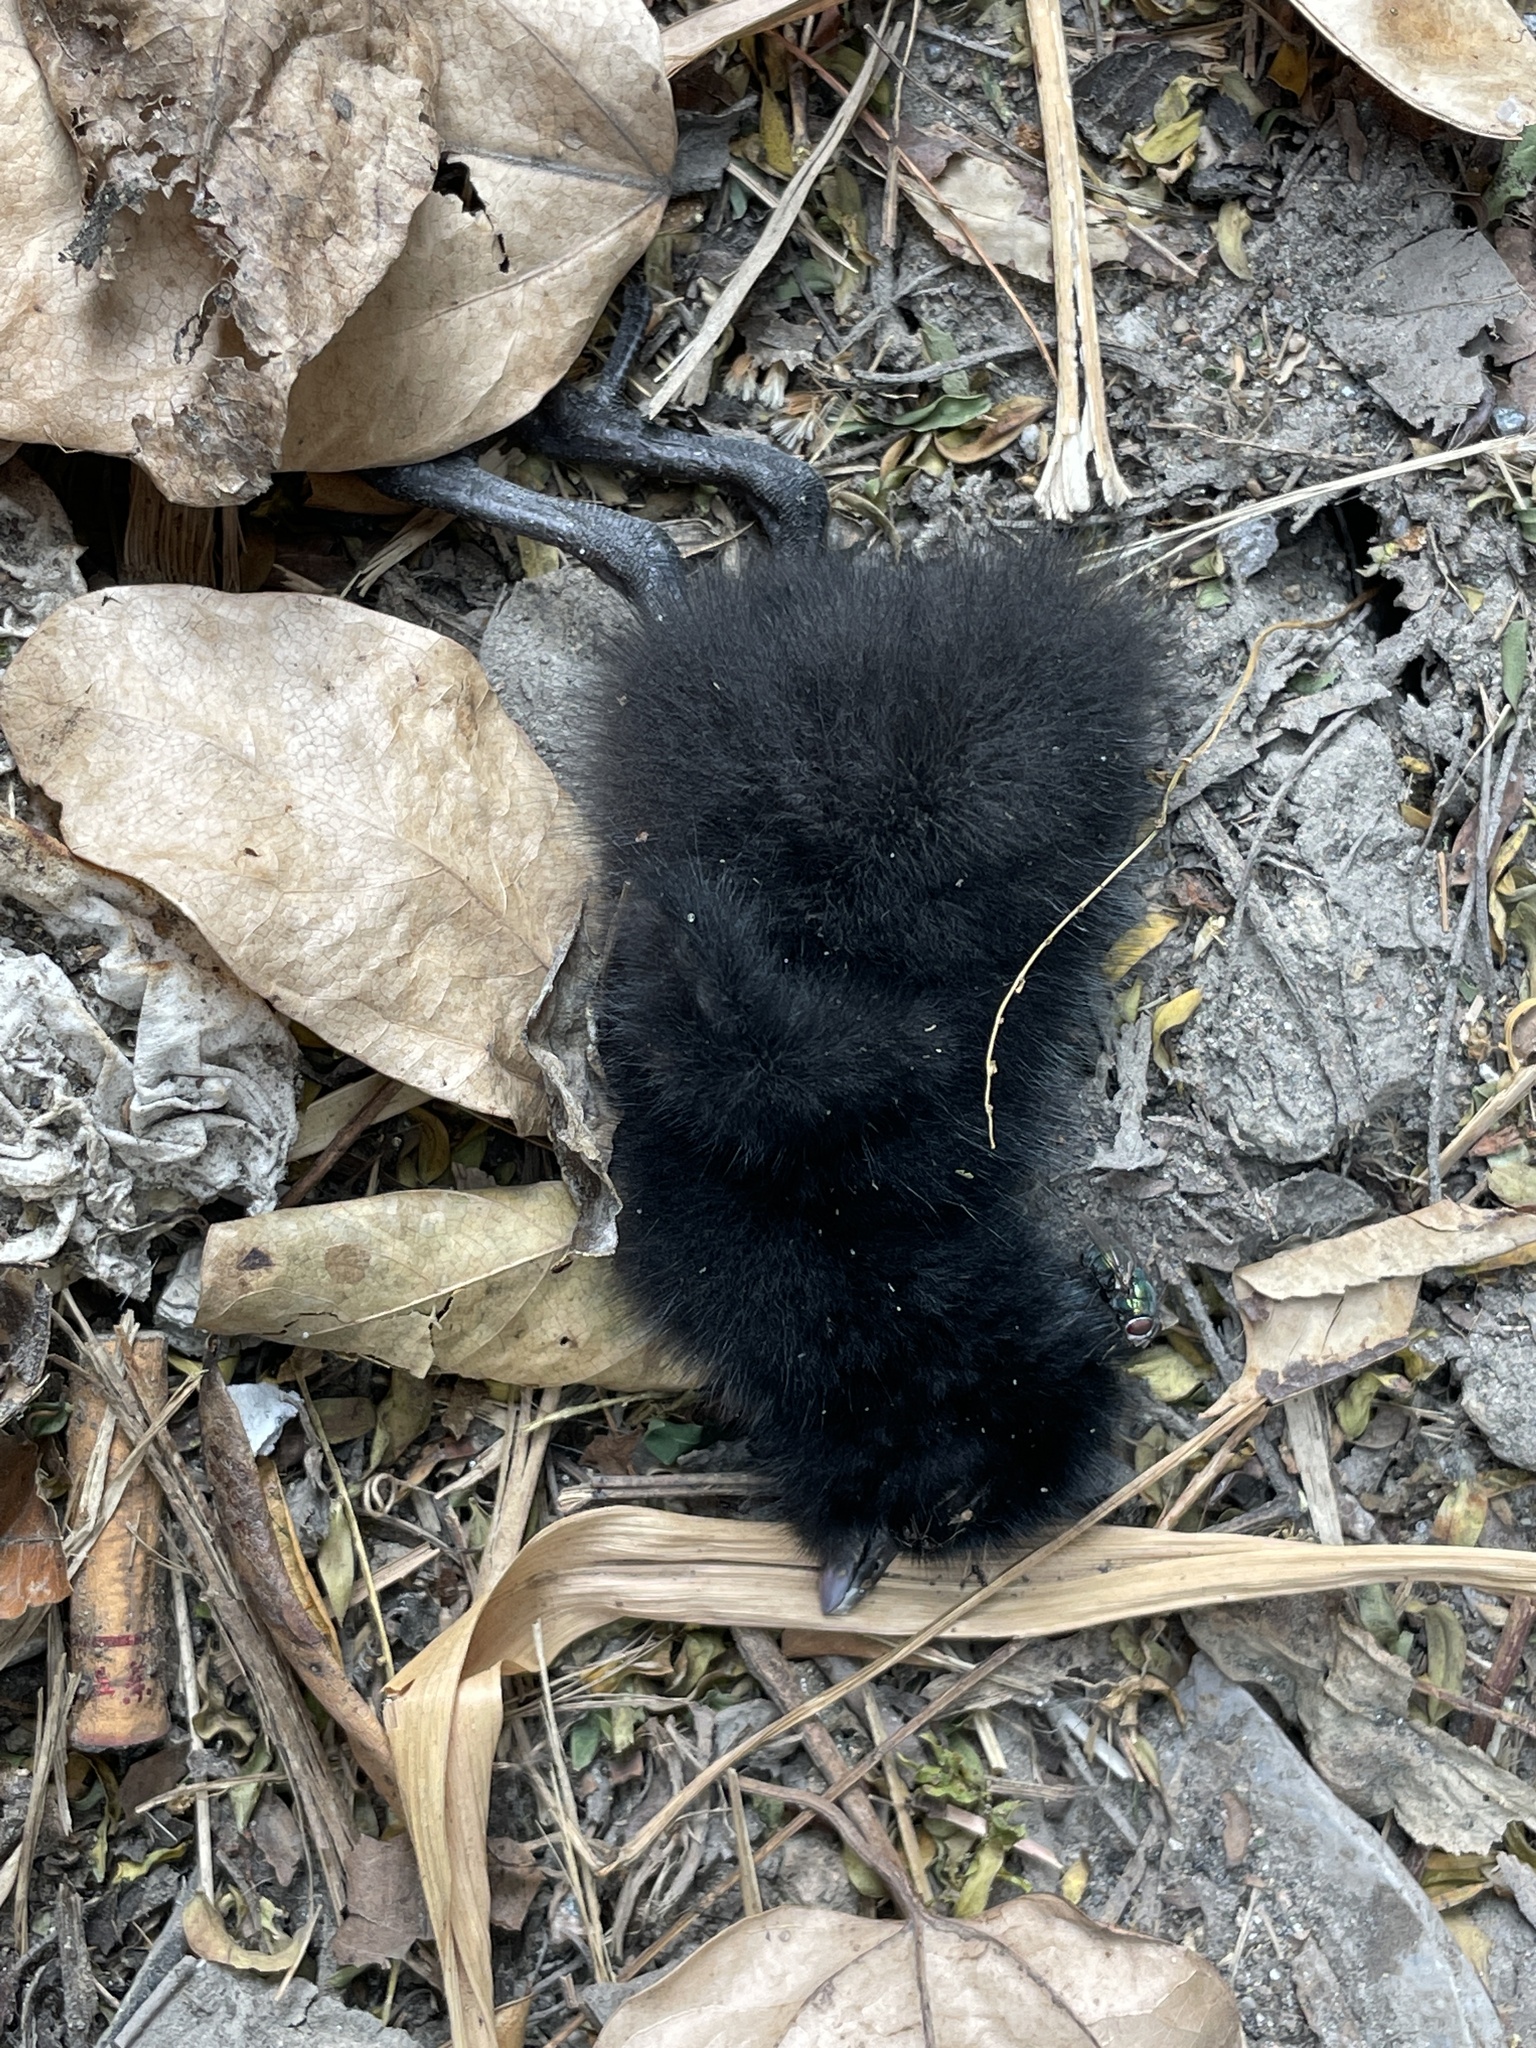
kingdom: Animalia
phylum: Chordata
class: Aves
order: Gruiformes
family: Rallidae
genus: Amaurornis
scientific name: Amaurornis phoenicurus
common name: White-breasted waterhen
